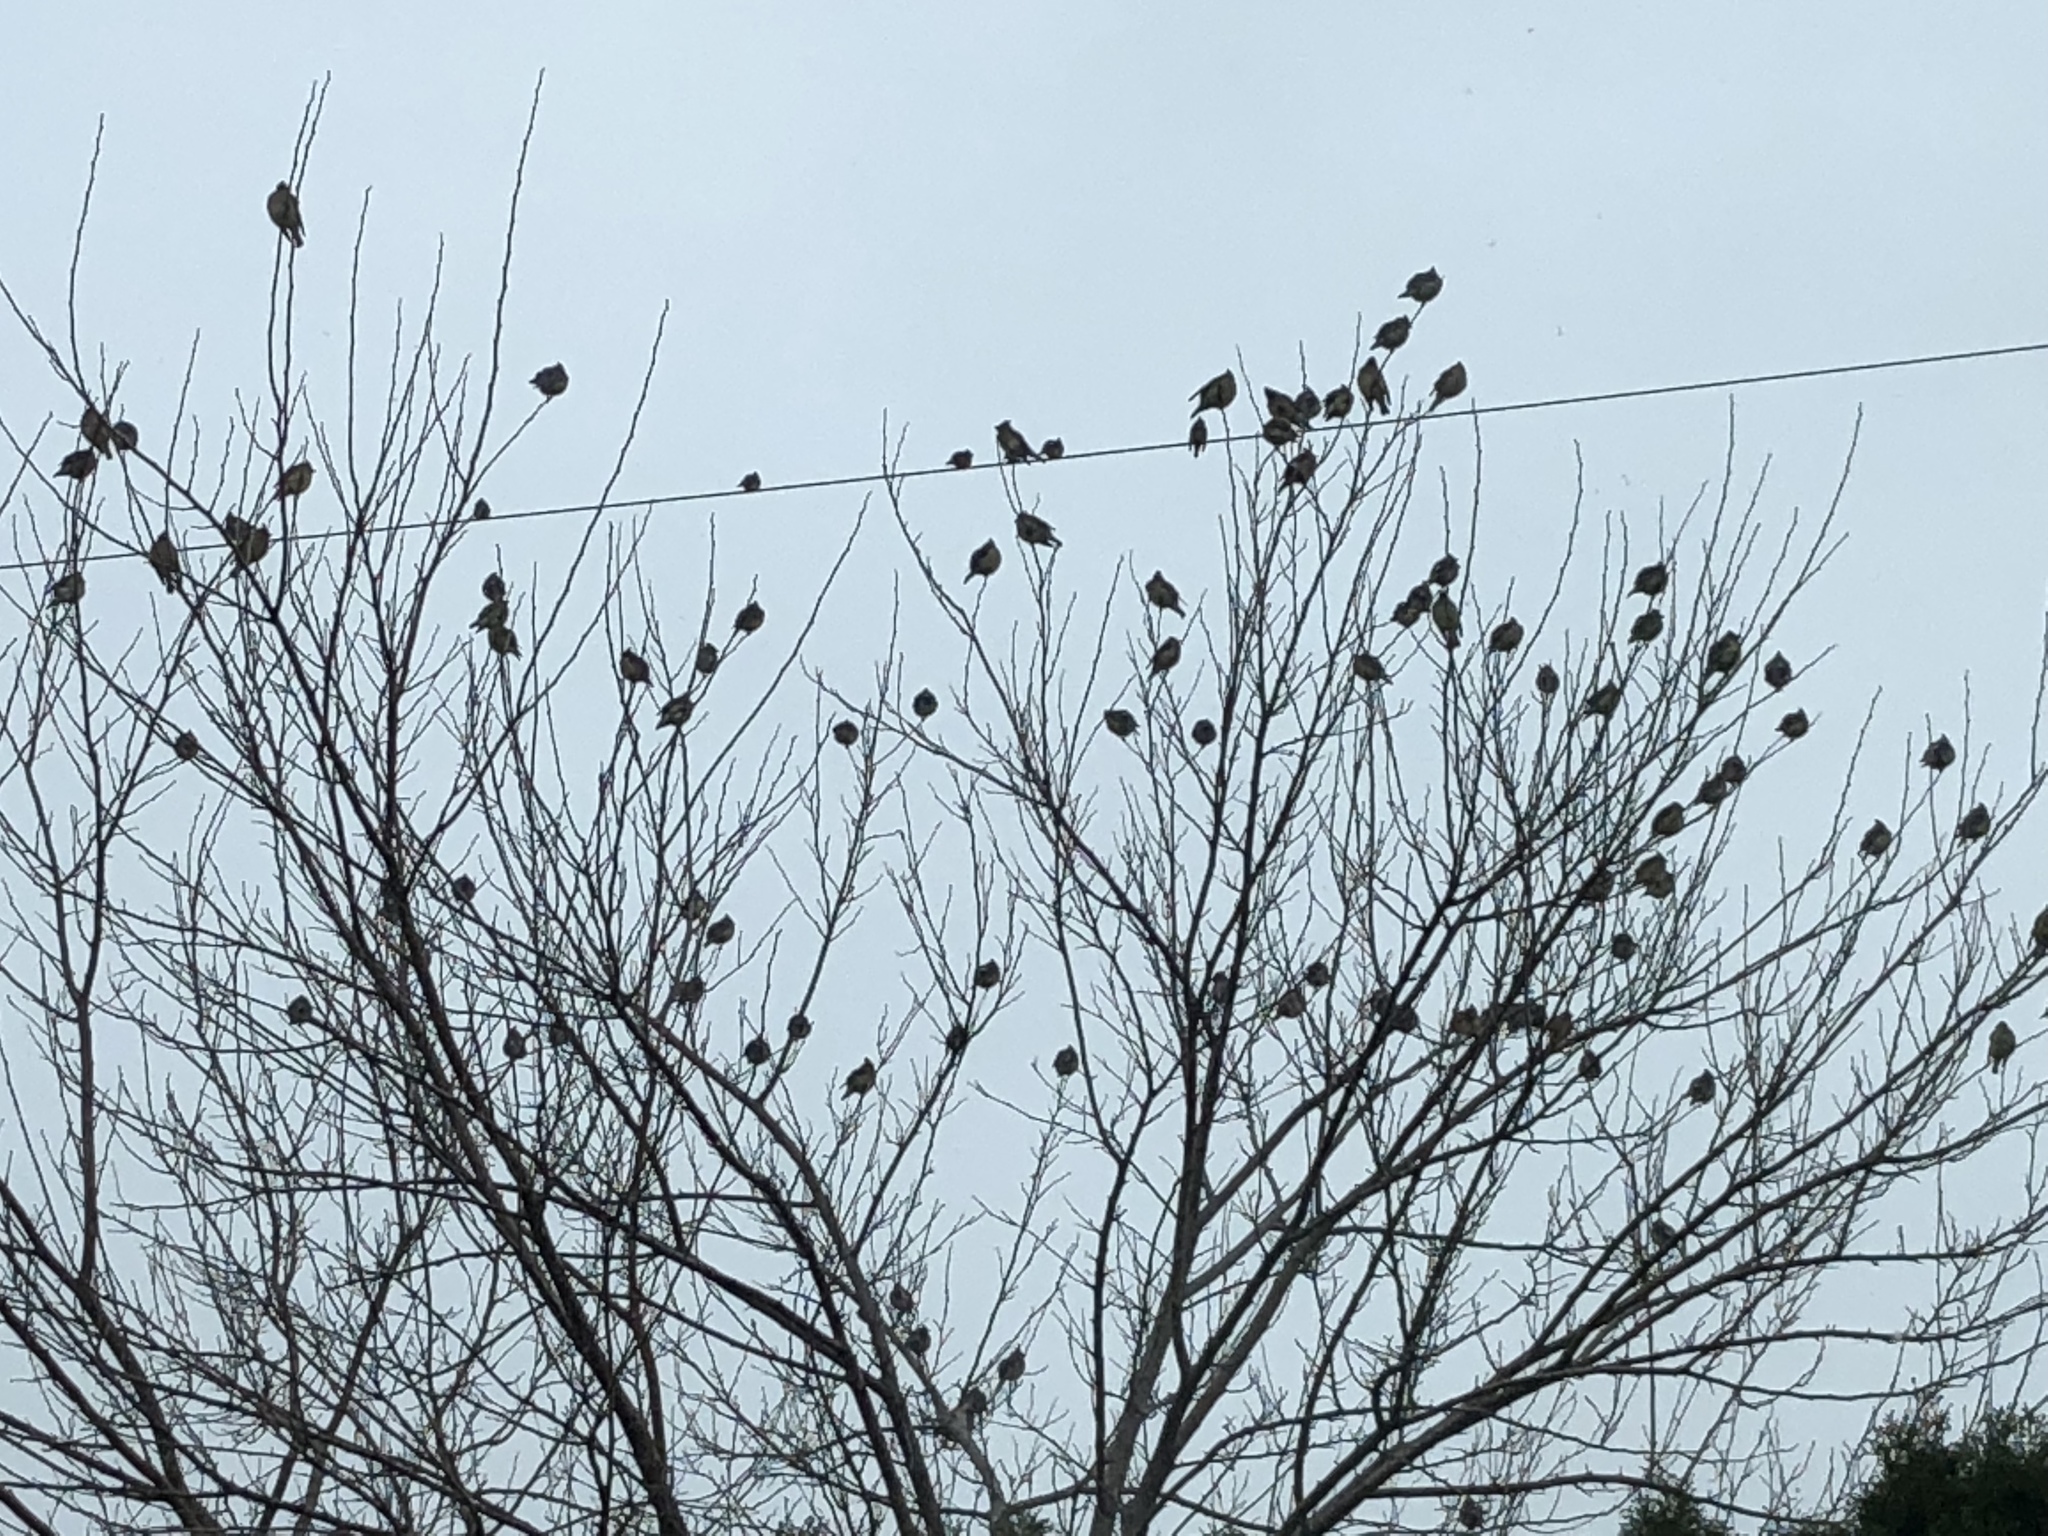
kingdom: Animalia
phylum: Chordata
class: Aves
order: Passeriformes
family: Bombycillidae
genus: Bombycilla
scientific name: Bombycilla cedrorum
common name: Cedar waxwing
